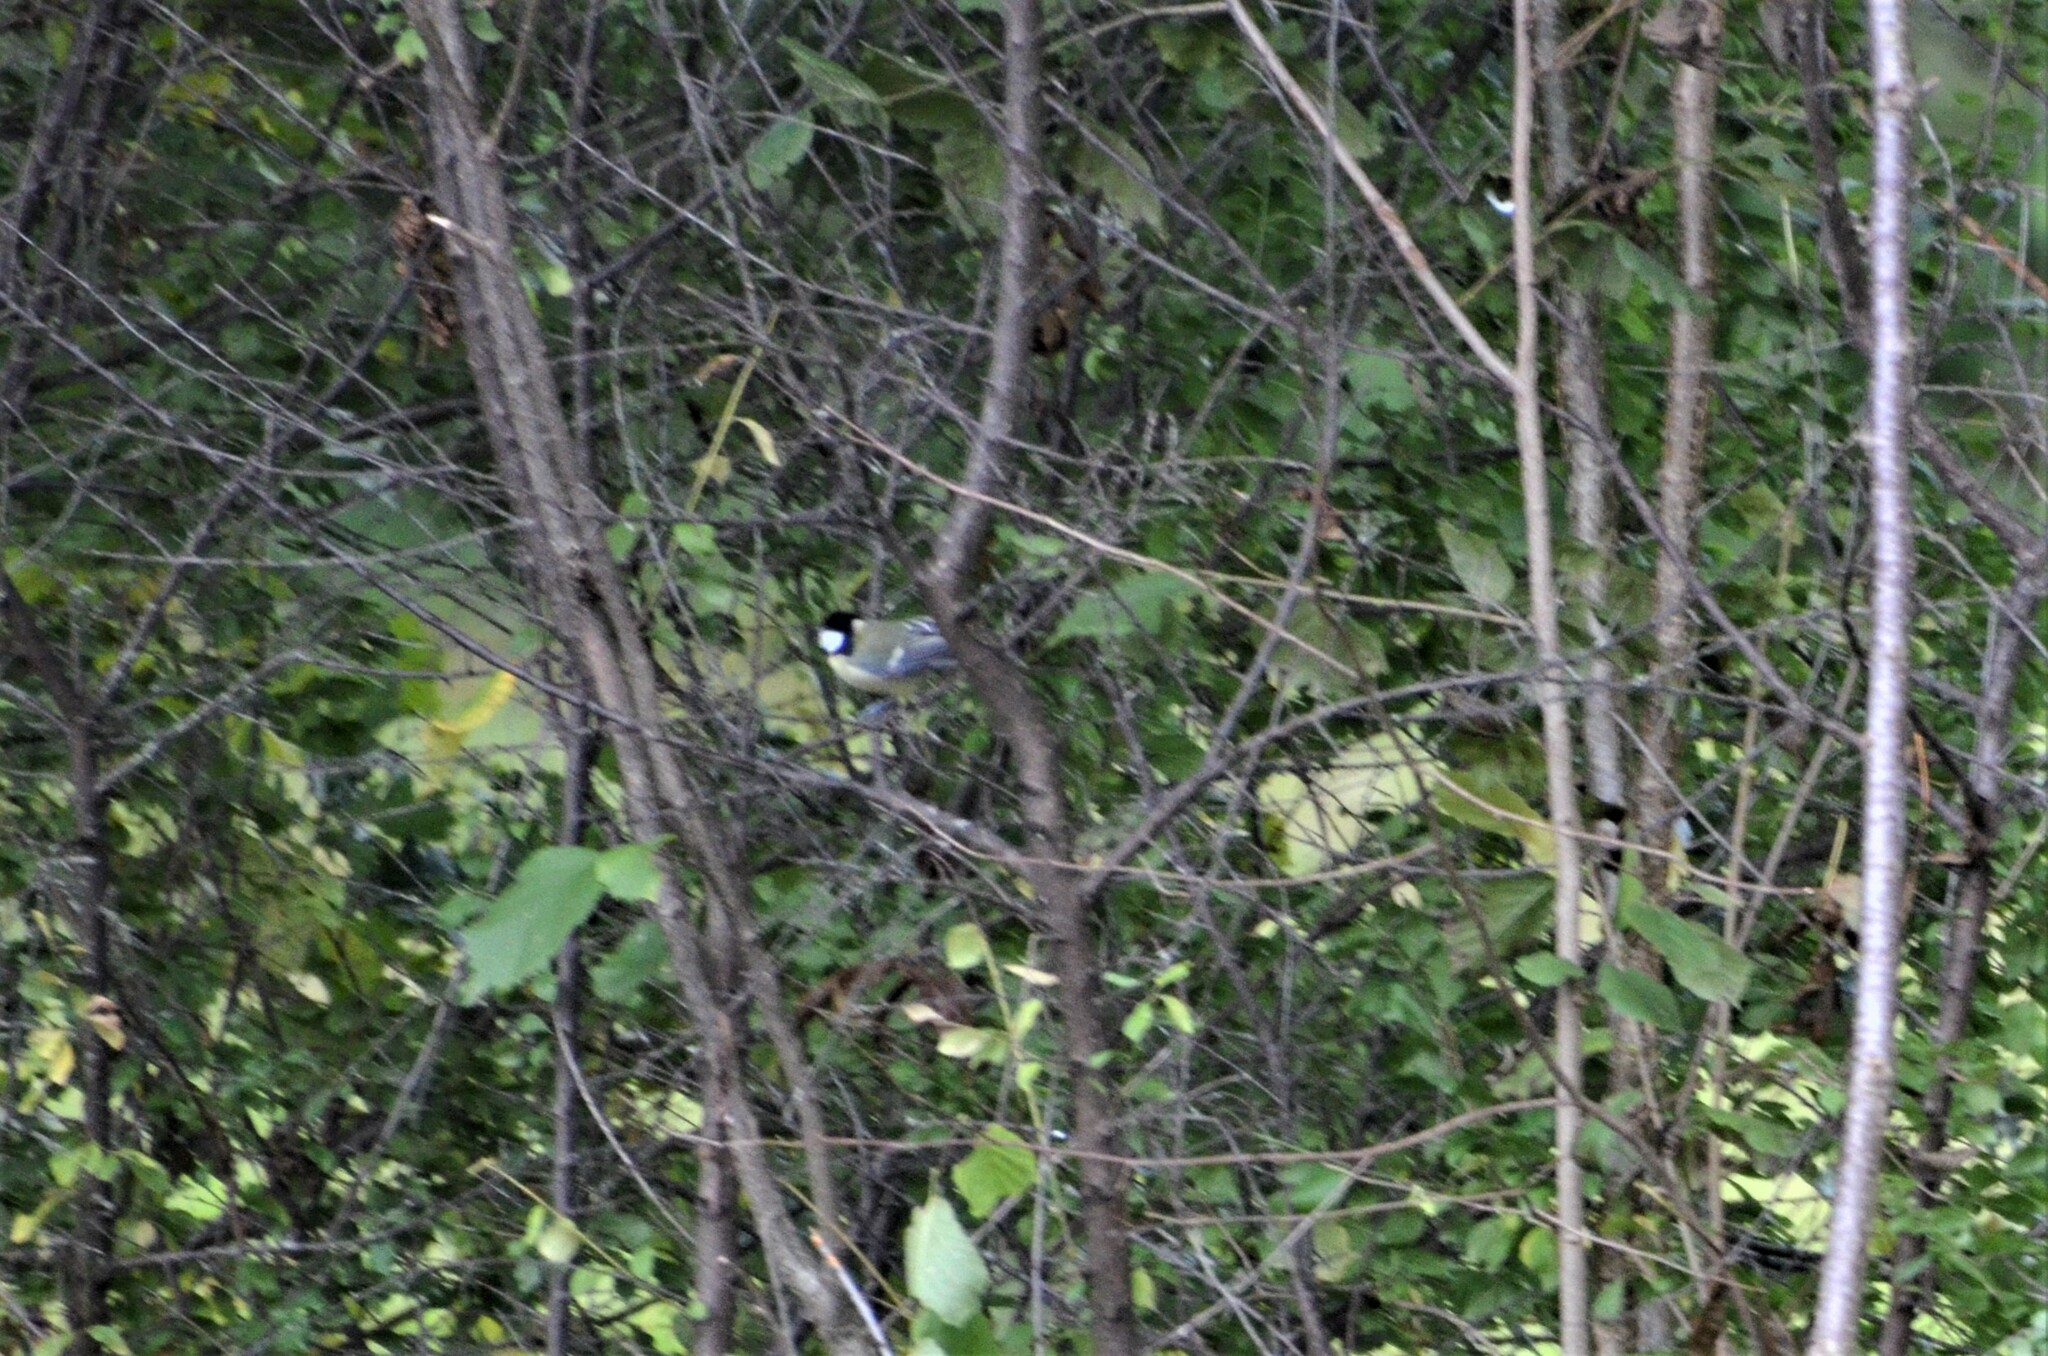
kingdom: Animalia
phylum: Chordata
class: Aves
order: Passeriformes
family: Paridae
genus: Parus
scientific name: Parus major
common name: Great tit
